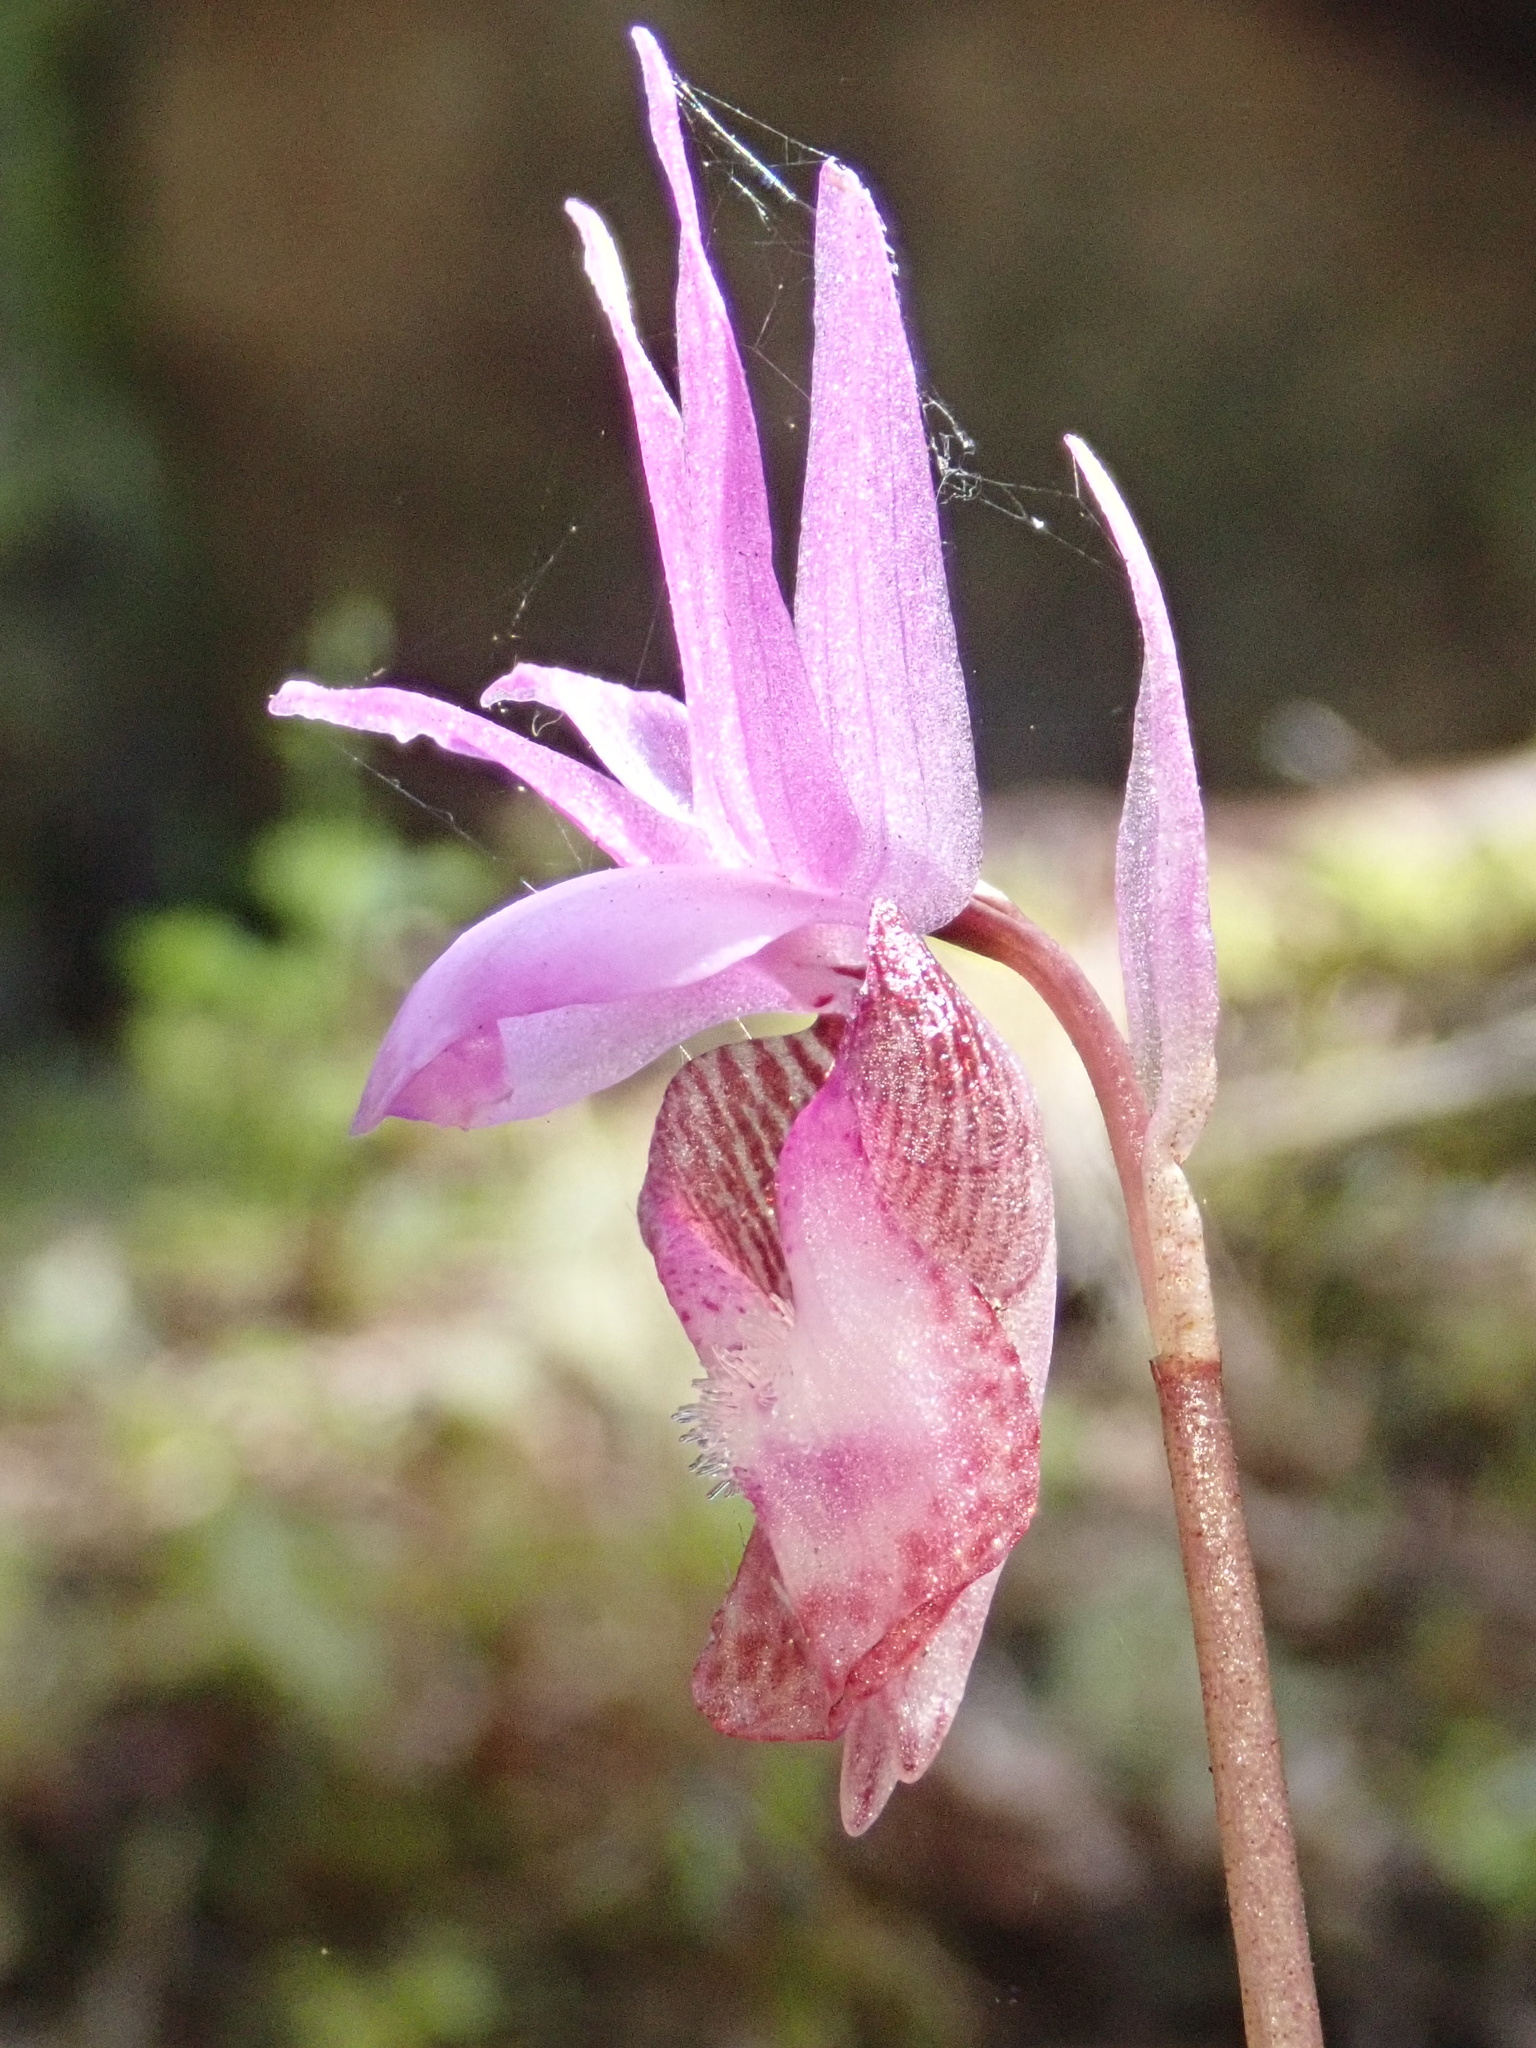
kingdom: Plantae
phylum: Tracheophyta
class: Liliopsida
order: Asparagales
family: Orchidaceae
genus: Calypso
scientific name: Calypso bulbosa
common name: Calypso
